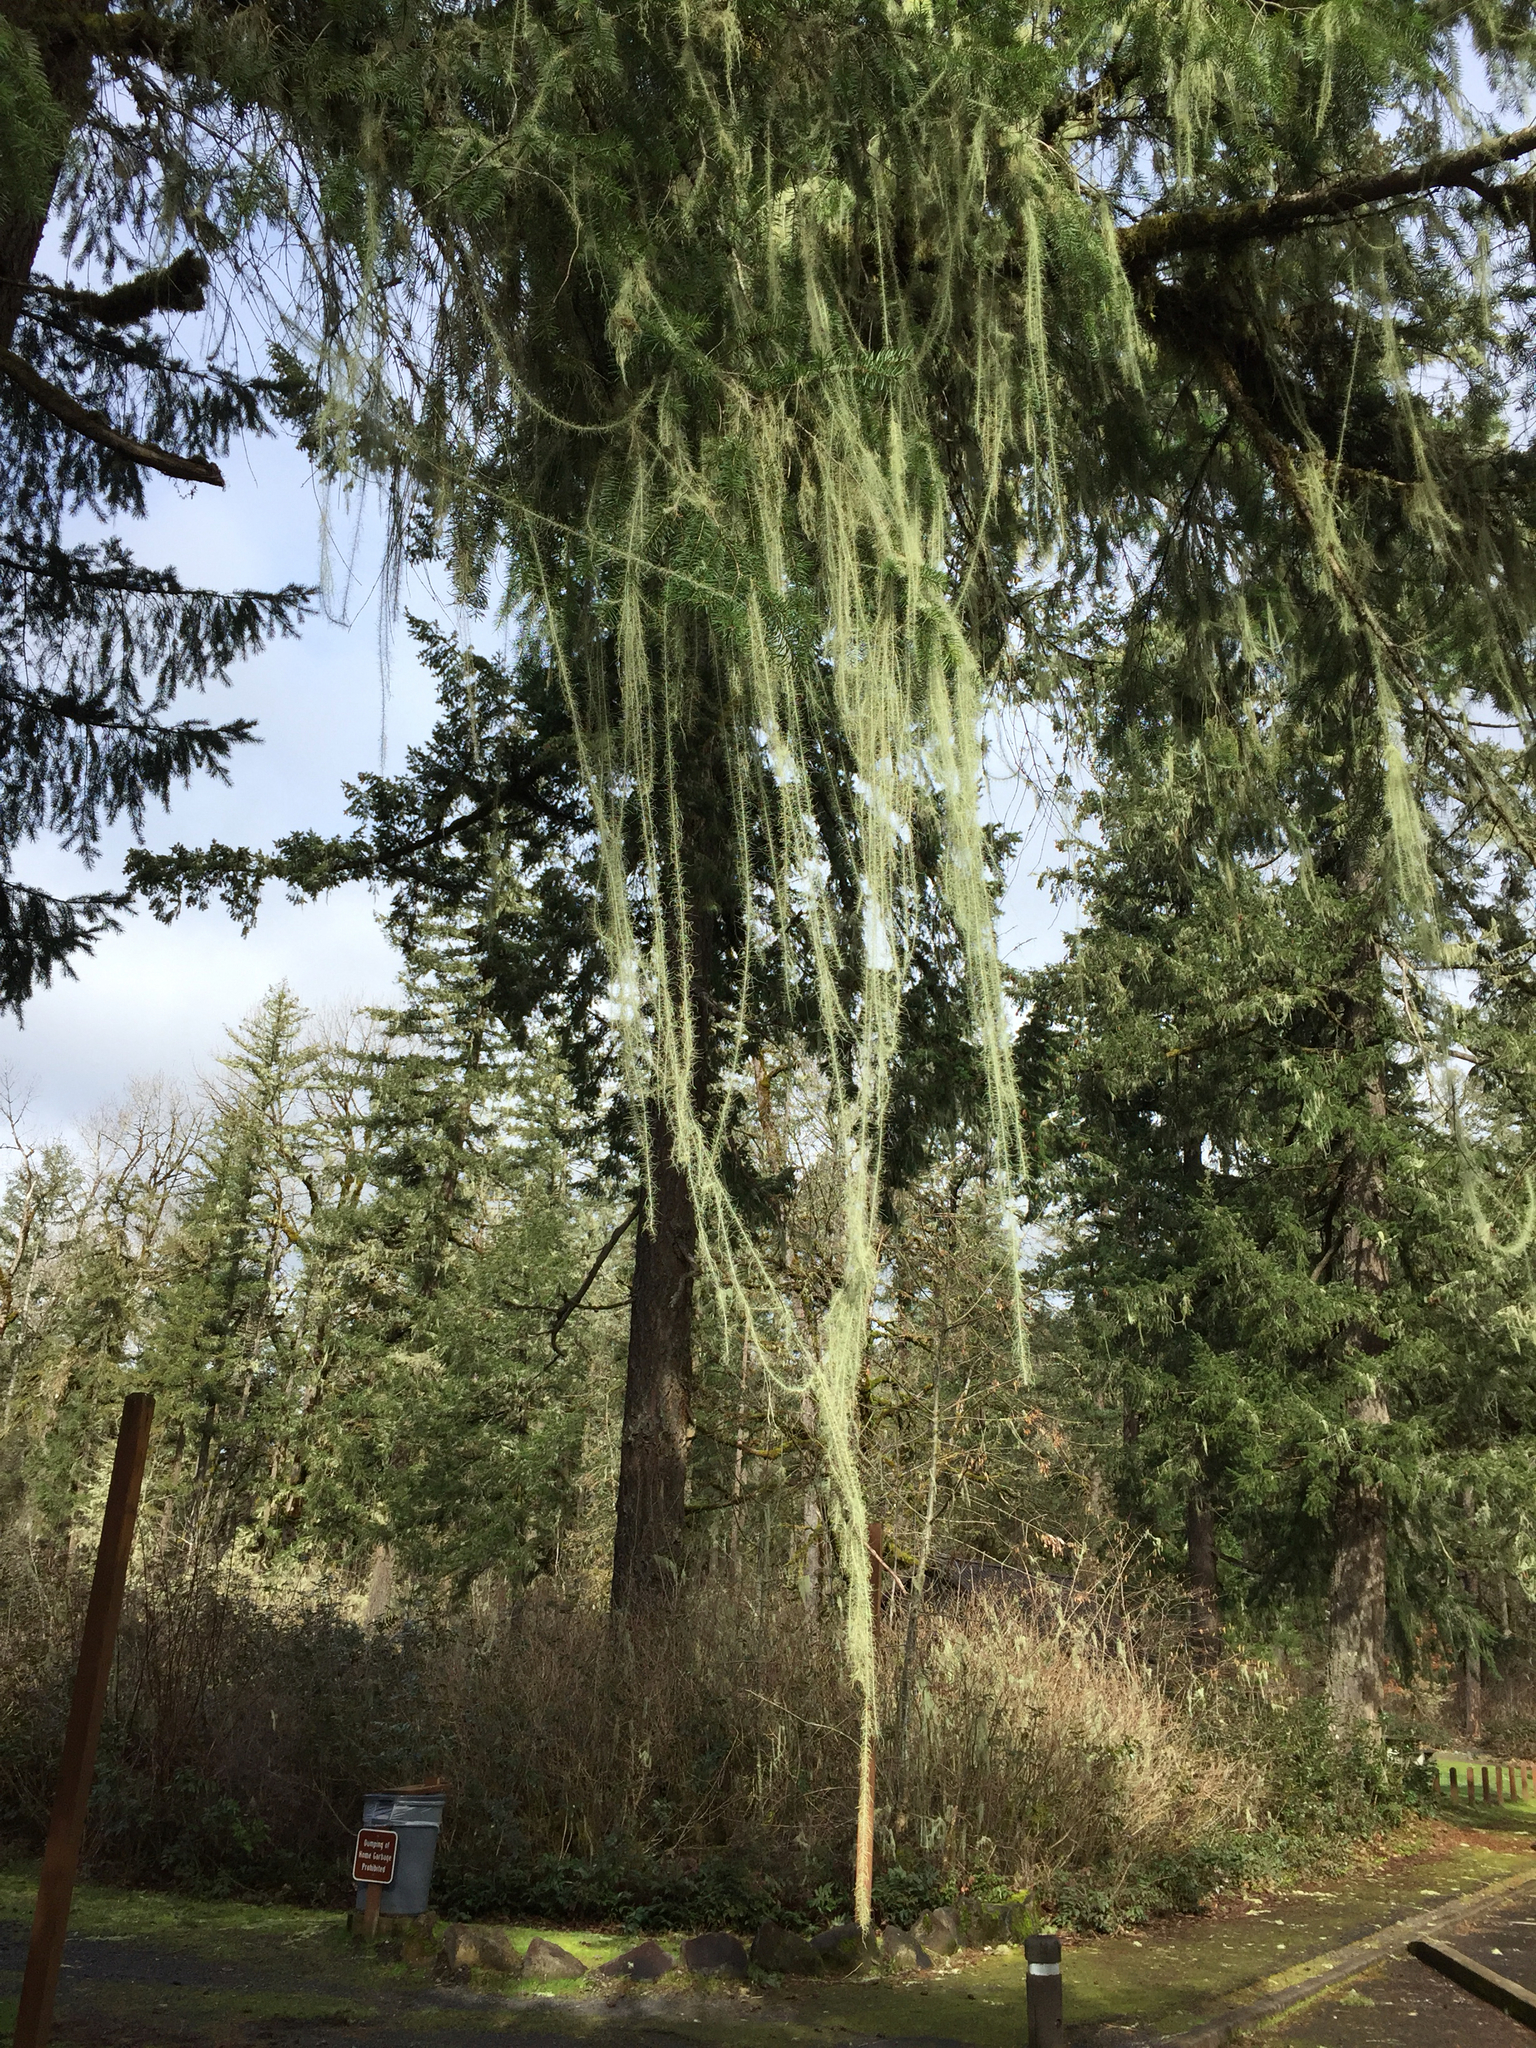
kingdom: Fungi
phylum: Ascomycota
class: Lecanoromycetes
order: Lecanorales
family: Parmeliaceae
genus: Dolichousnea
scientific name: Dolichousnea longissima
